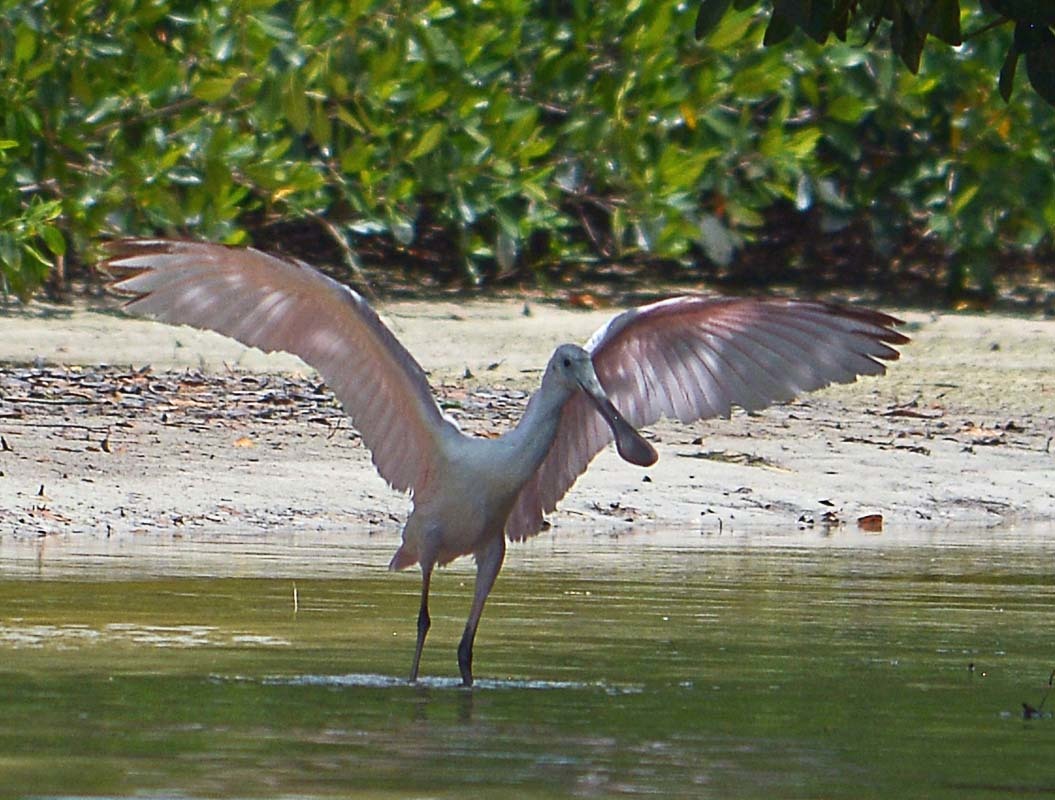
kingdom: Animalia
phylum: Chordata
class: Aves
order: Pelecaniformes
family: Threskiornithidae
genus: Platalea
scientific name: Platalea ajaja
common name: Roseate spoonbill
